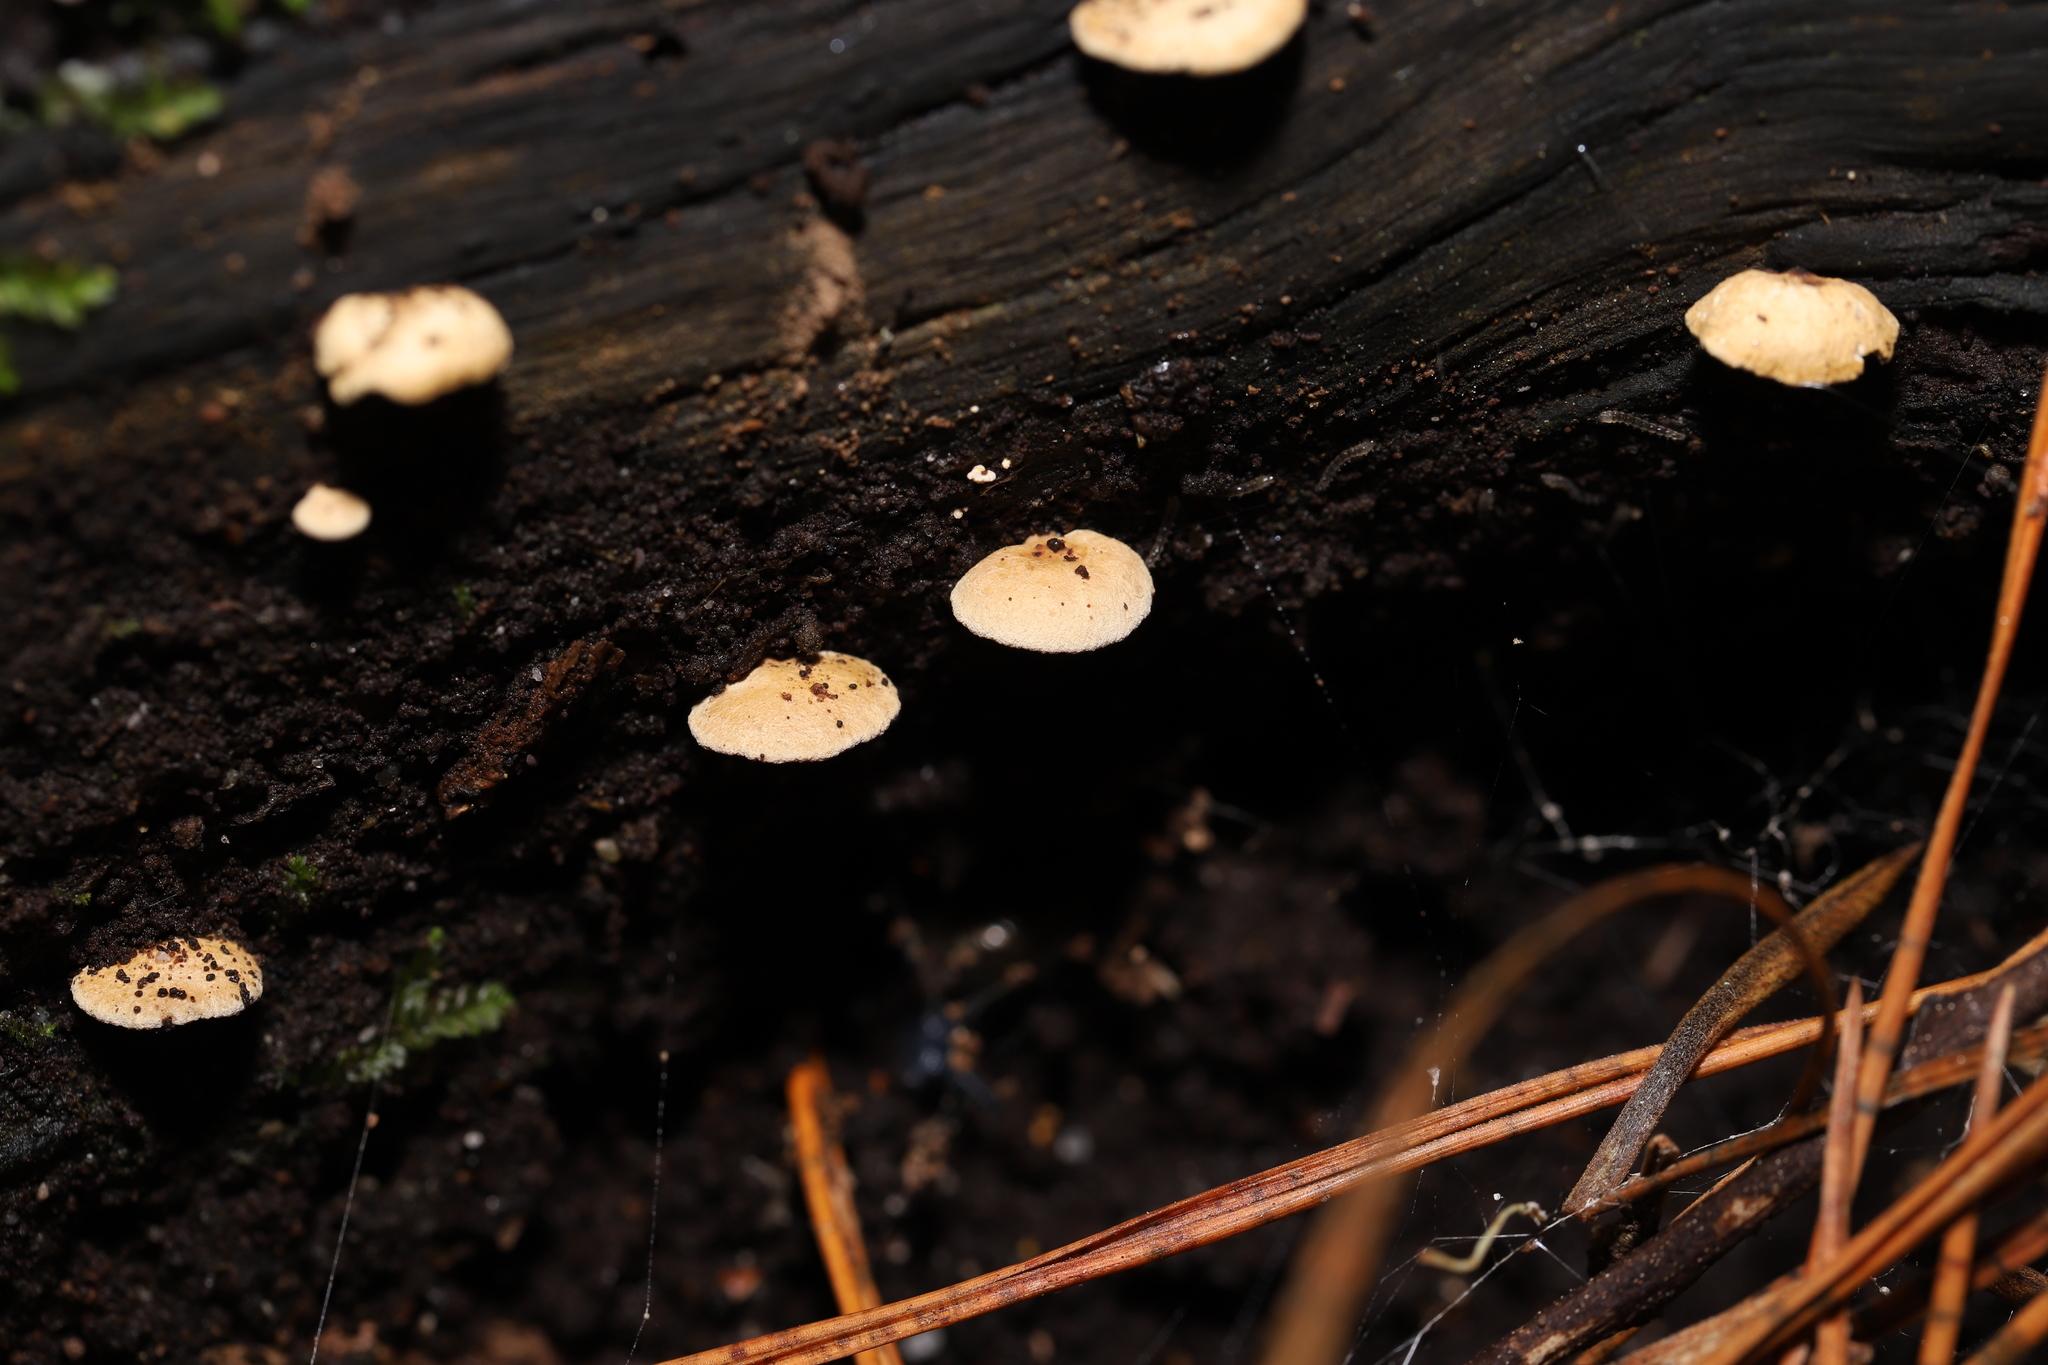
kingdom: Fungi
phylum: Basidiomycota
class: Agaricomycetes
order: Agaricales
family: Mycenaceae
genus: Panellus
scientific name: Panellus luxfilamentus
